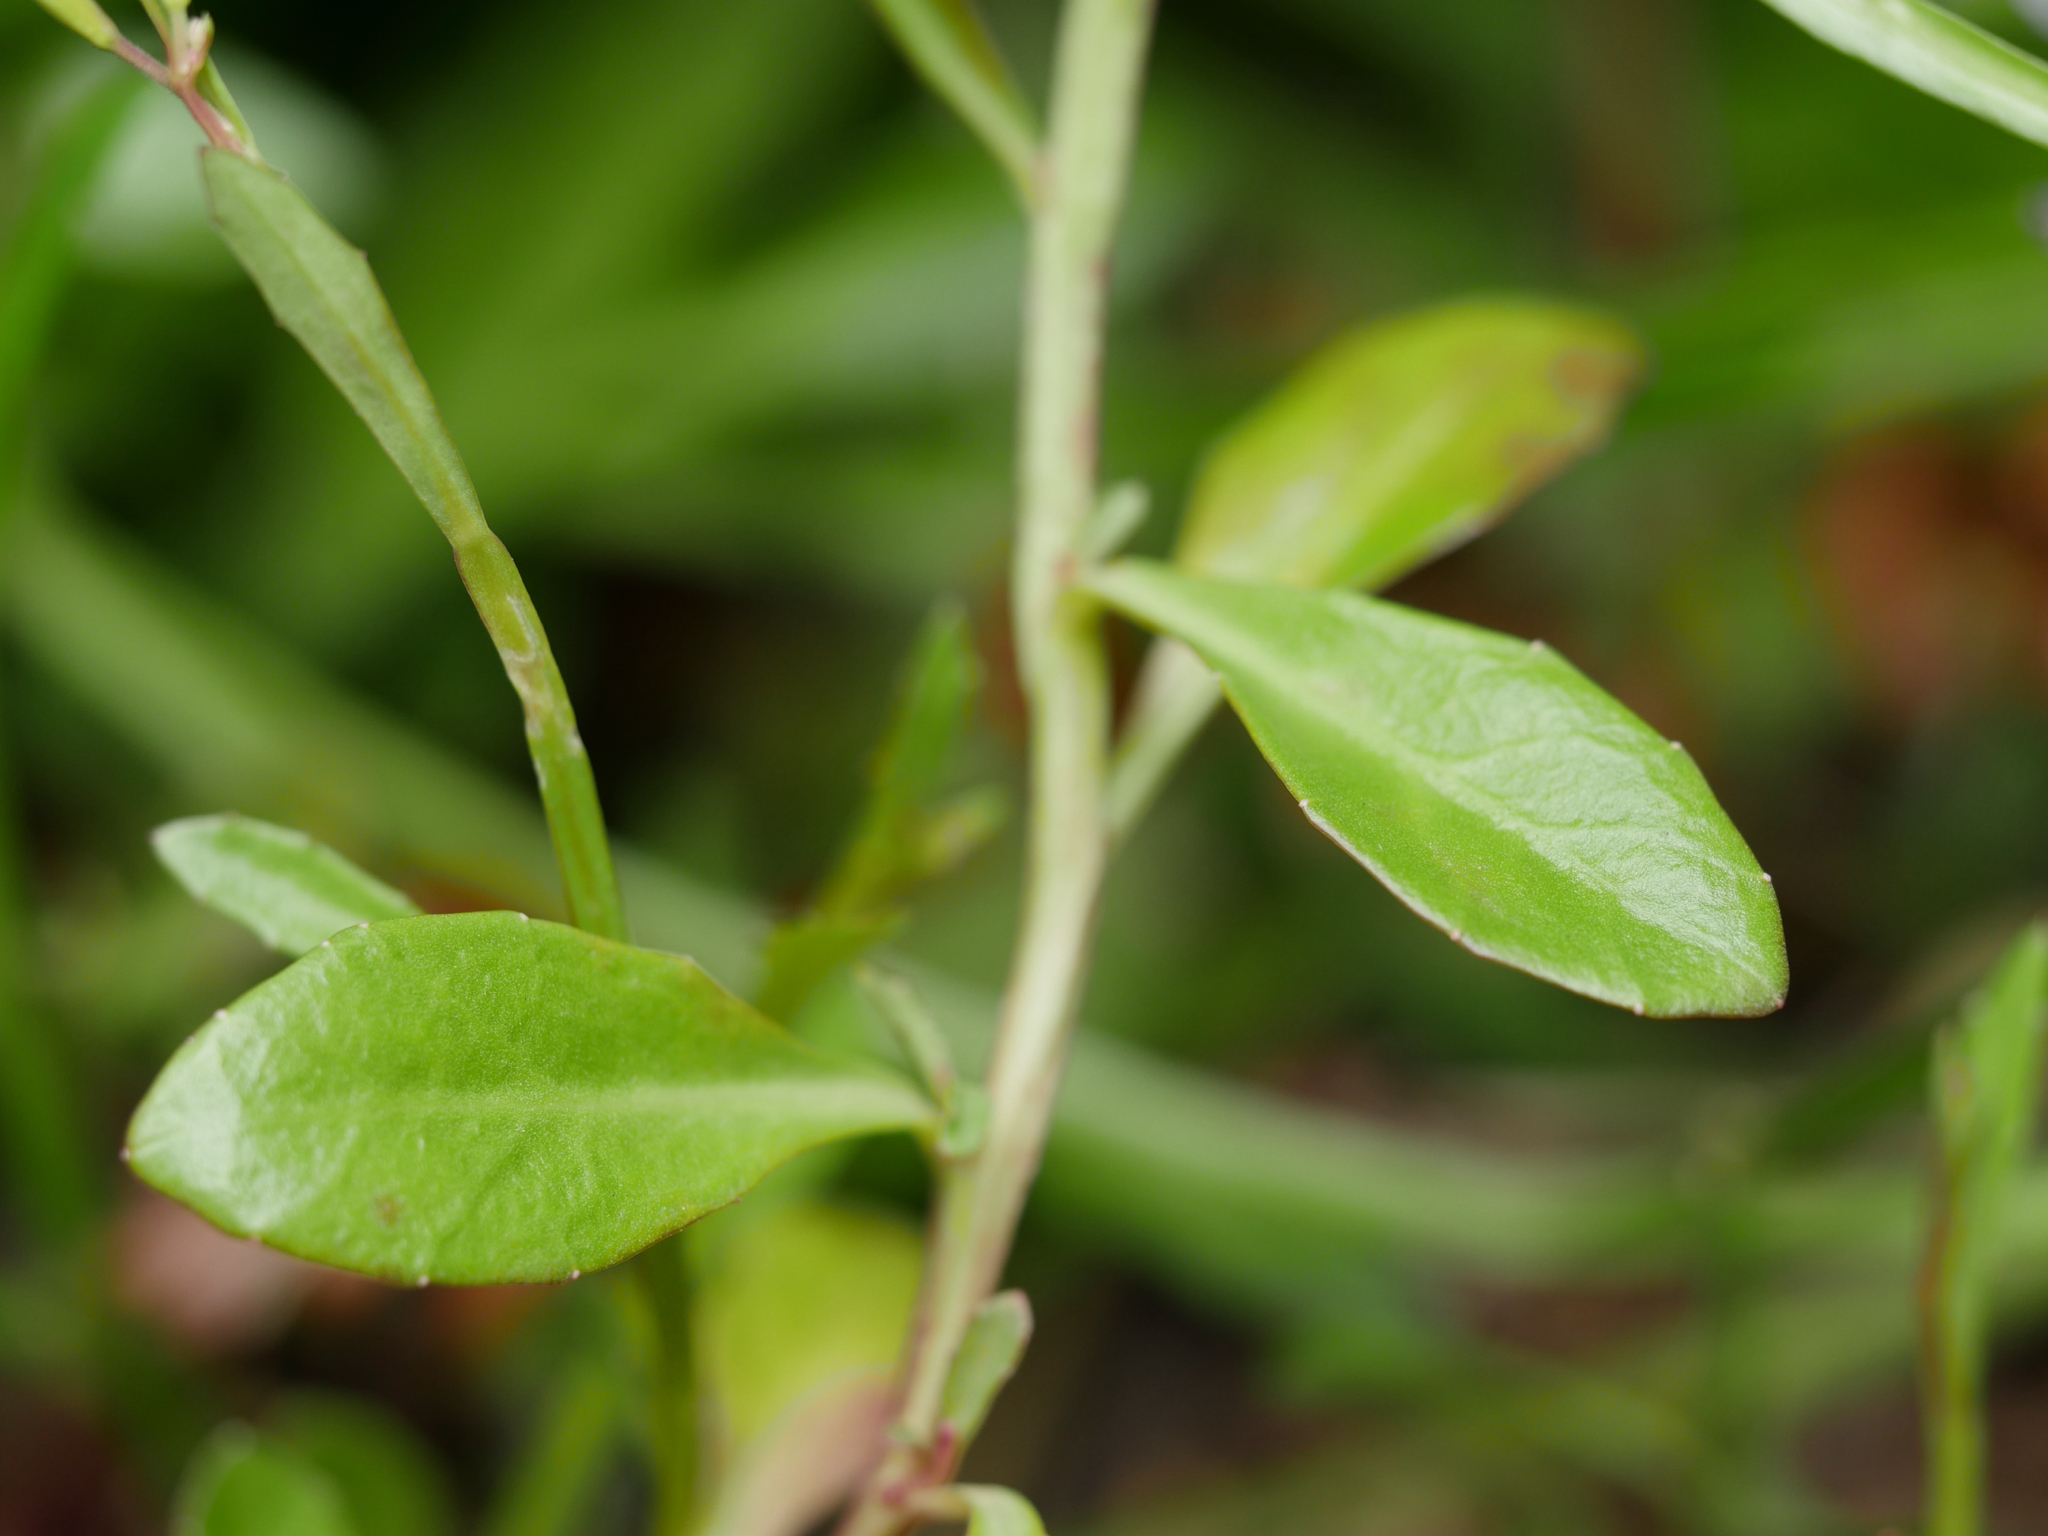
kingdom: Plantae
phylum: Tracheophyta
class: Magnoliopsida
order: Asterales
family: Campanulaceae
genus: Lobelia
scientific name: Lobelia anceps
